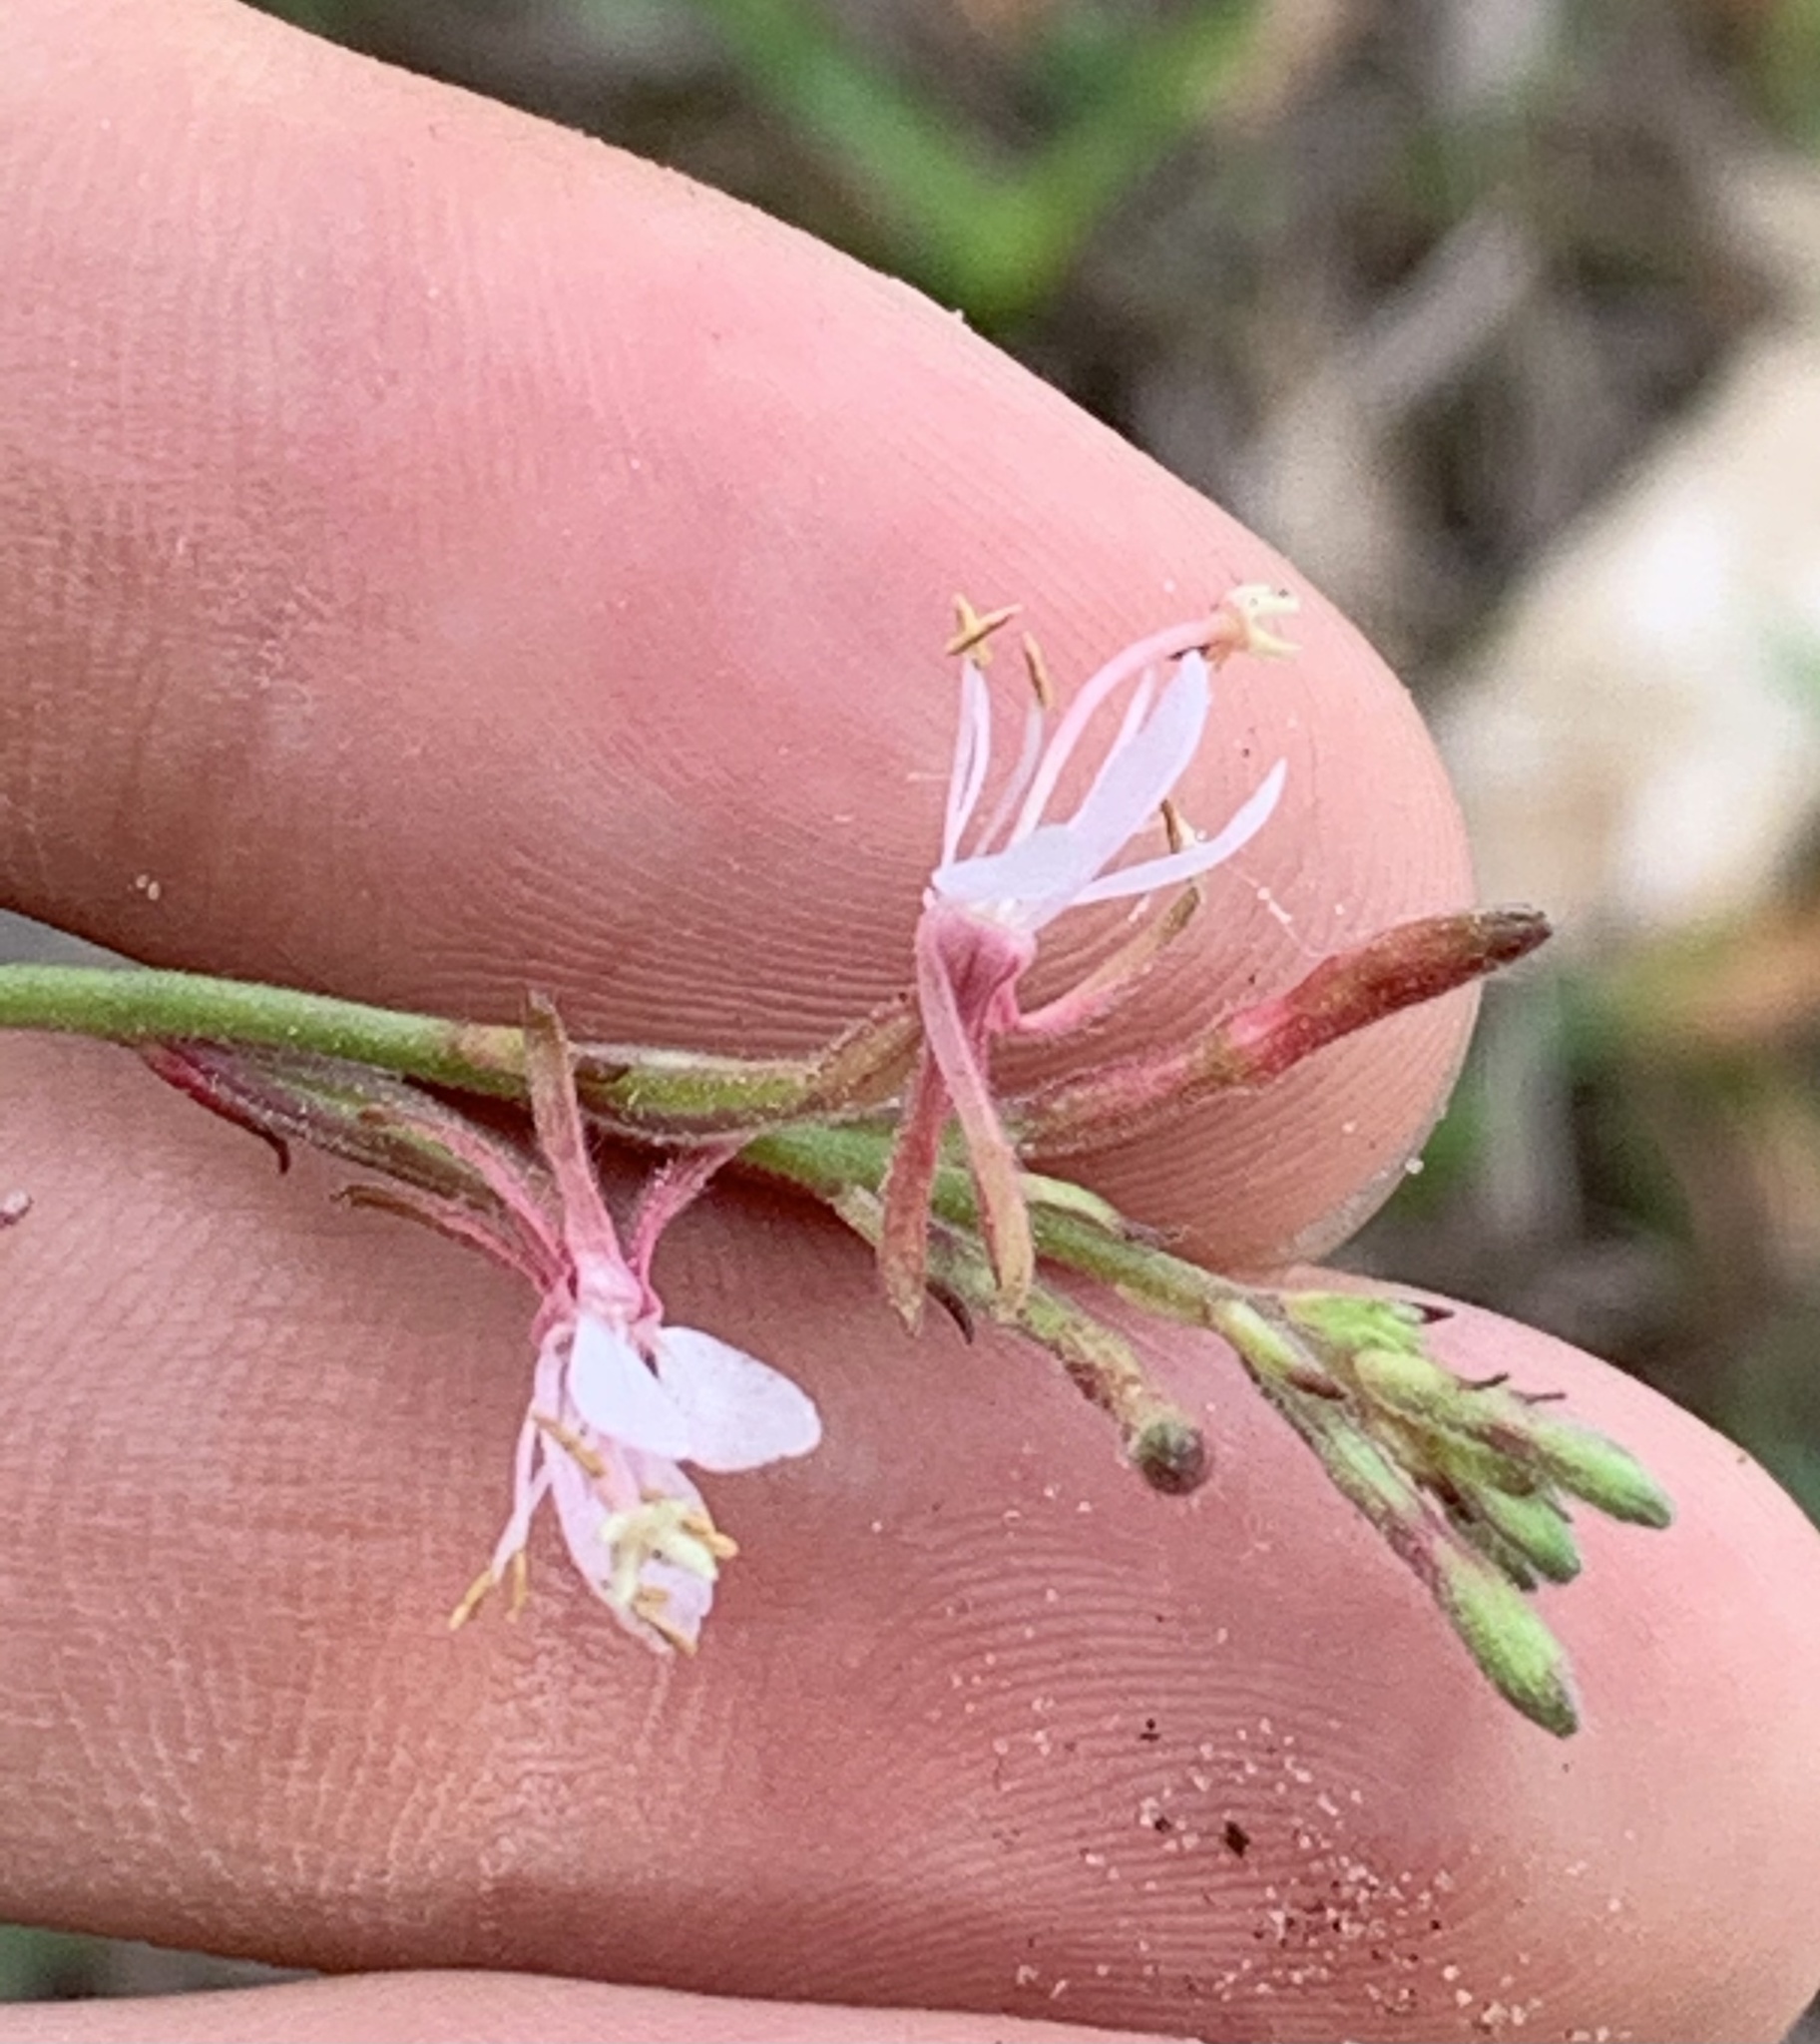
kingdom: Plantae
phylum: Tracheophyta
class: Magnoliopsida
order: Myrtales
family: Onagraceae
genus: Oenothera
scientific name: Oenothera simulans
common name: Southern beeblossom
